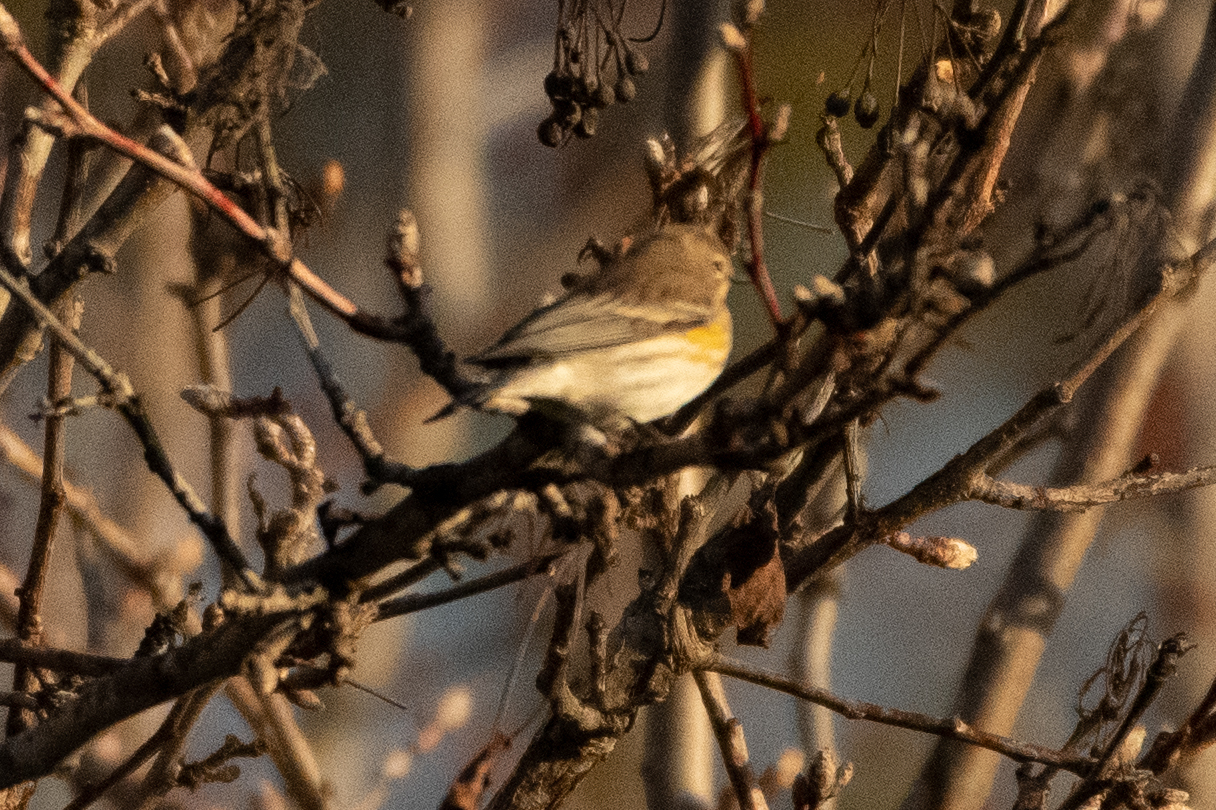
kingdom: Animalia
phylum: Chordata
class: Aves
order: Passeriformes
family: Parulidae
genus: Setophaga
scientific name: Setophaga coronata
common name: Myrtle warbler
